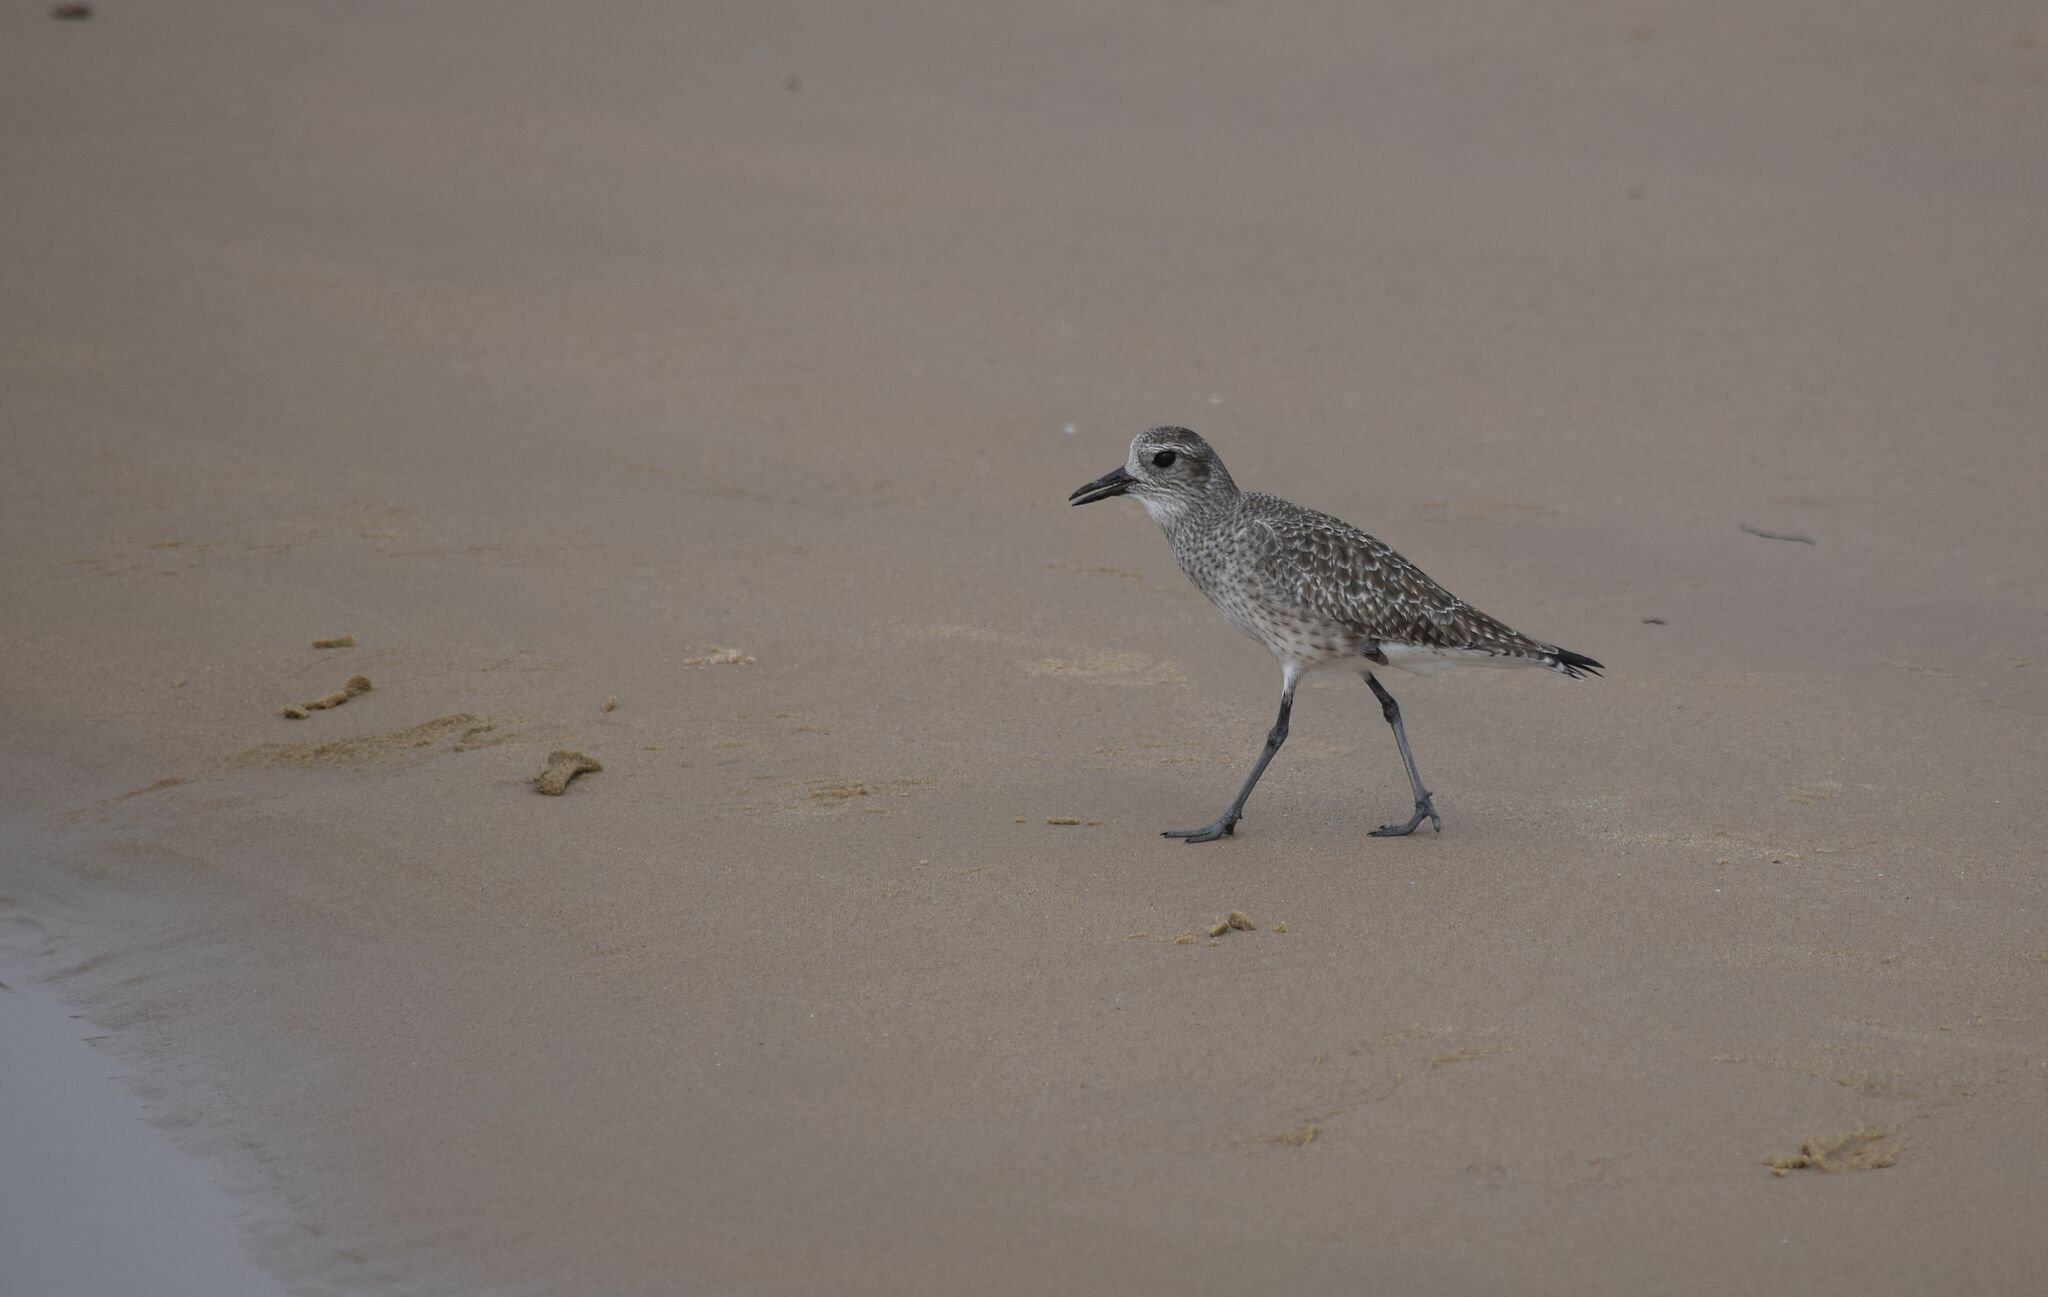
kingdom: Animalia
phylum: Chordata
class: Aves
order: Charadriiformes
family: Charadriidae
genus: Pluvialis
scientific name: Pluvialis squatarola
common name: Grey plover
